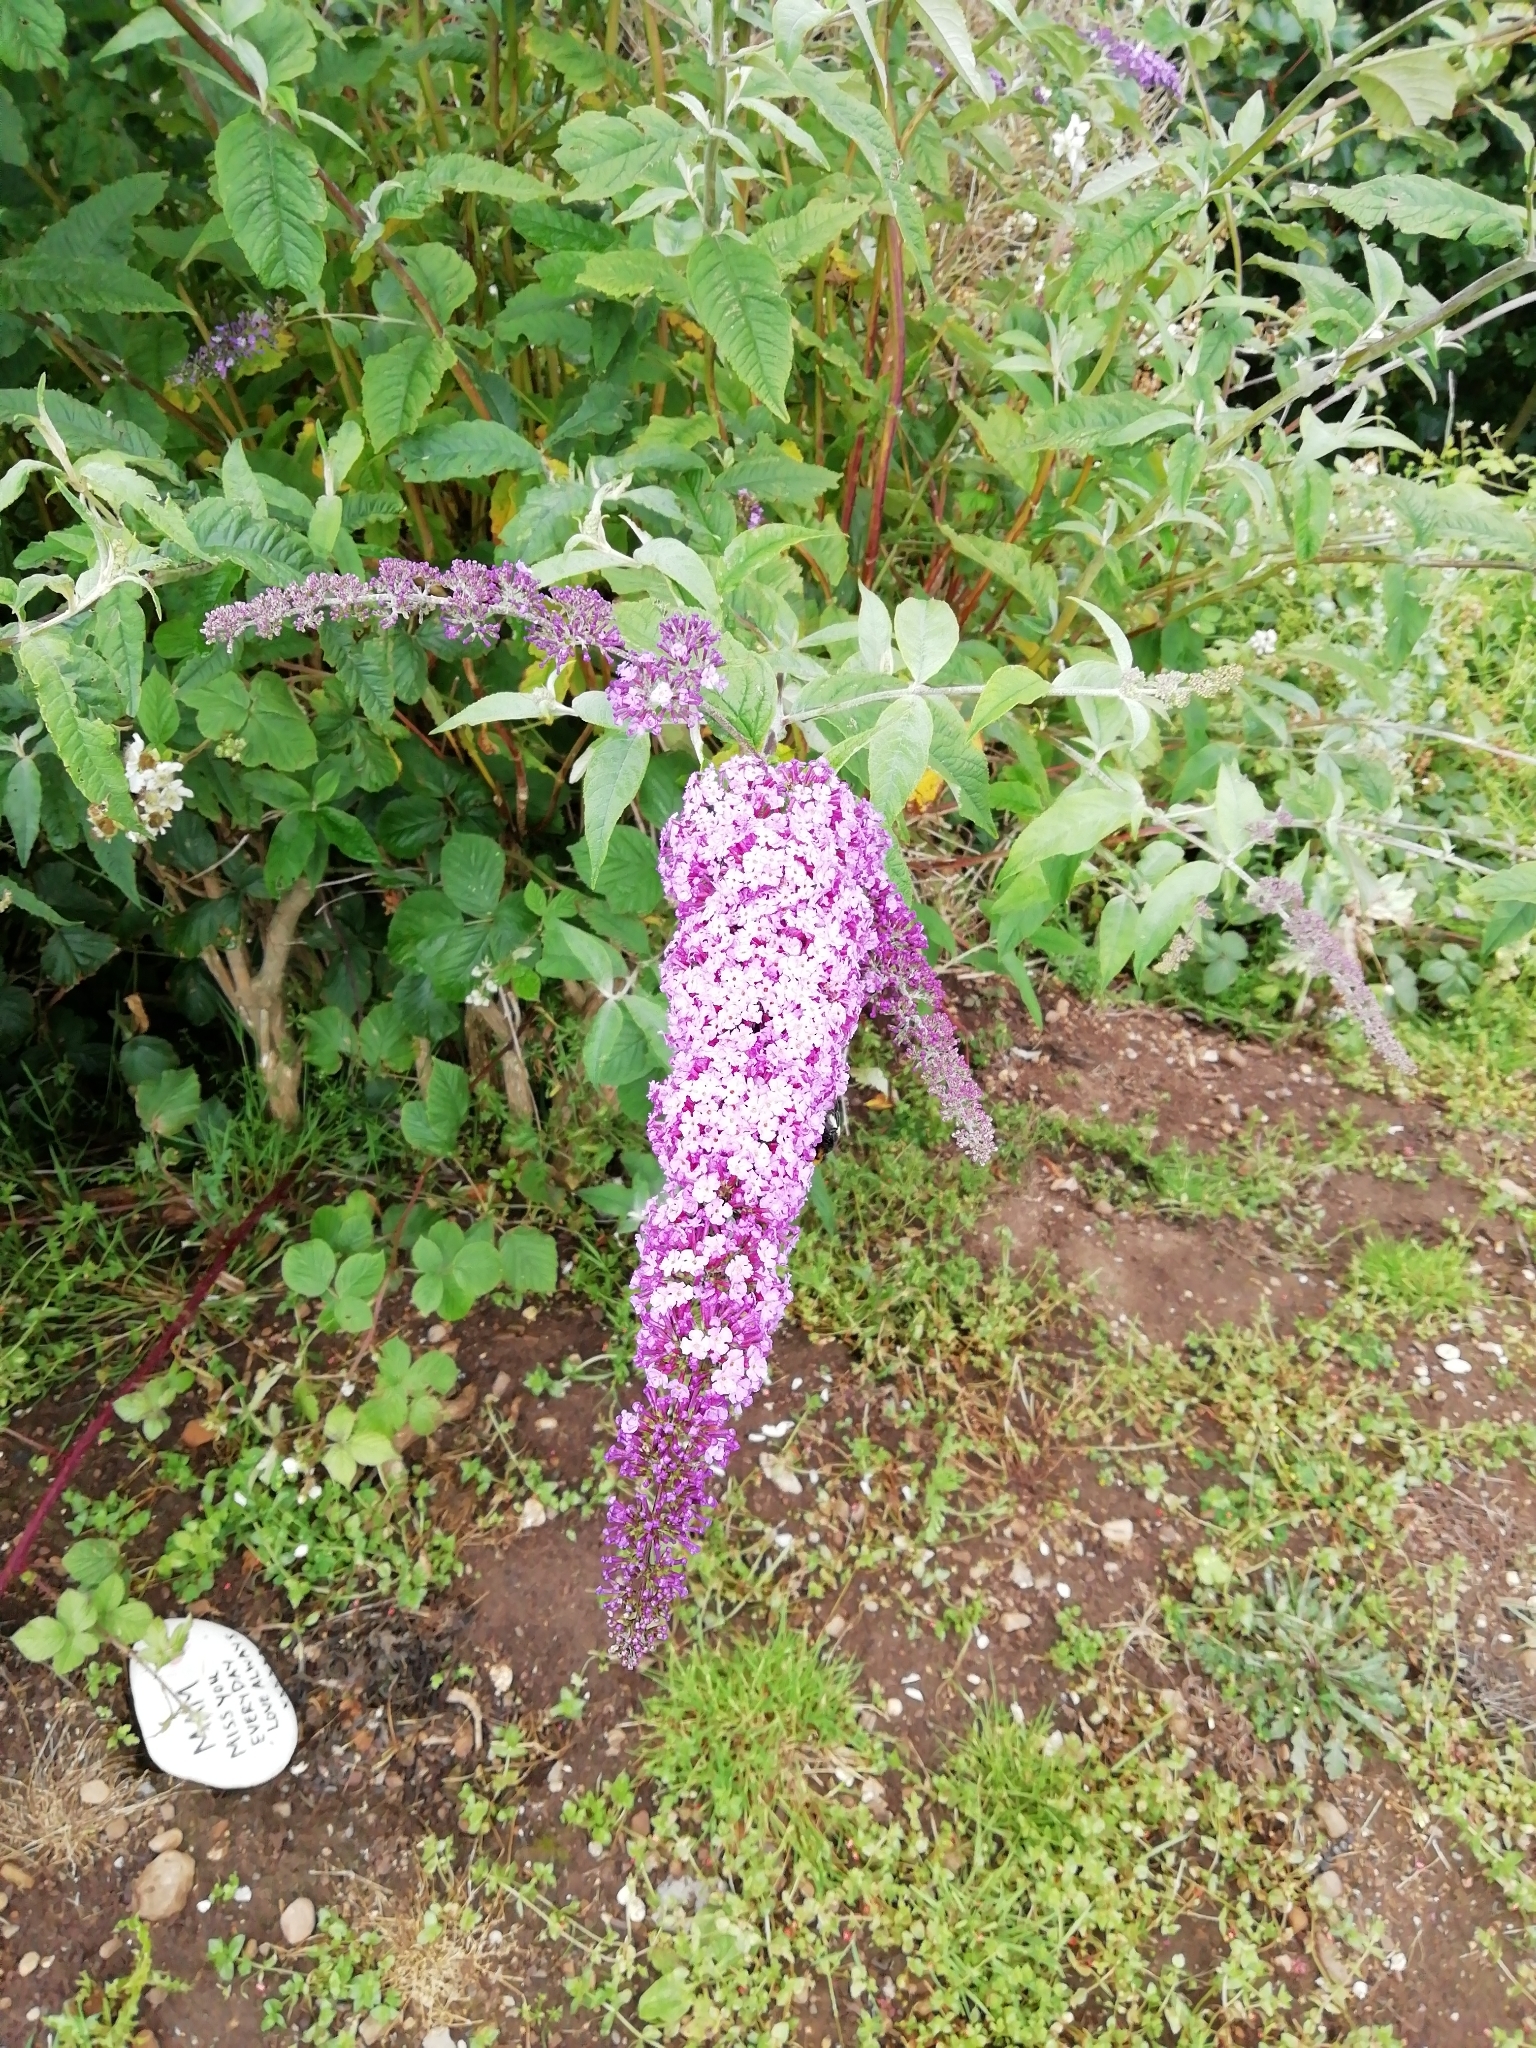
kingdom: Plantae
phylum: Tracheophyta
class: Magnoliopsida
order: Lamiales
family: Scrophulariaceae
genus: Buddleja
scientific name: Buddleja davidii
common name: Butterfly-bush
